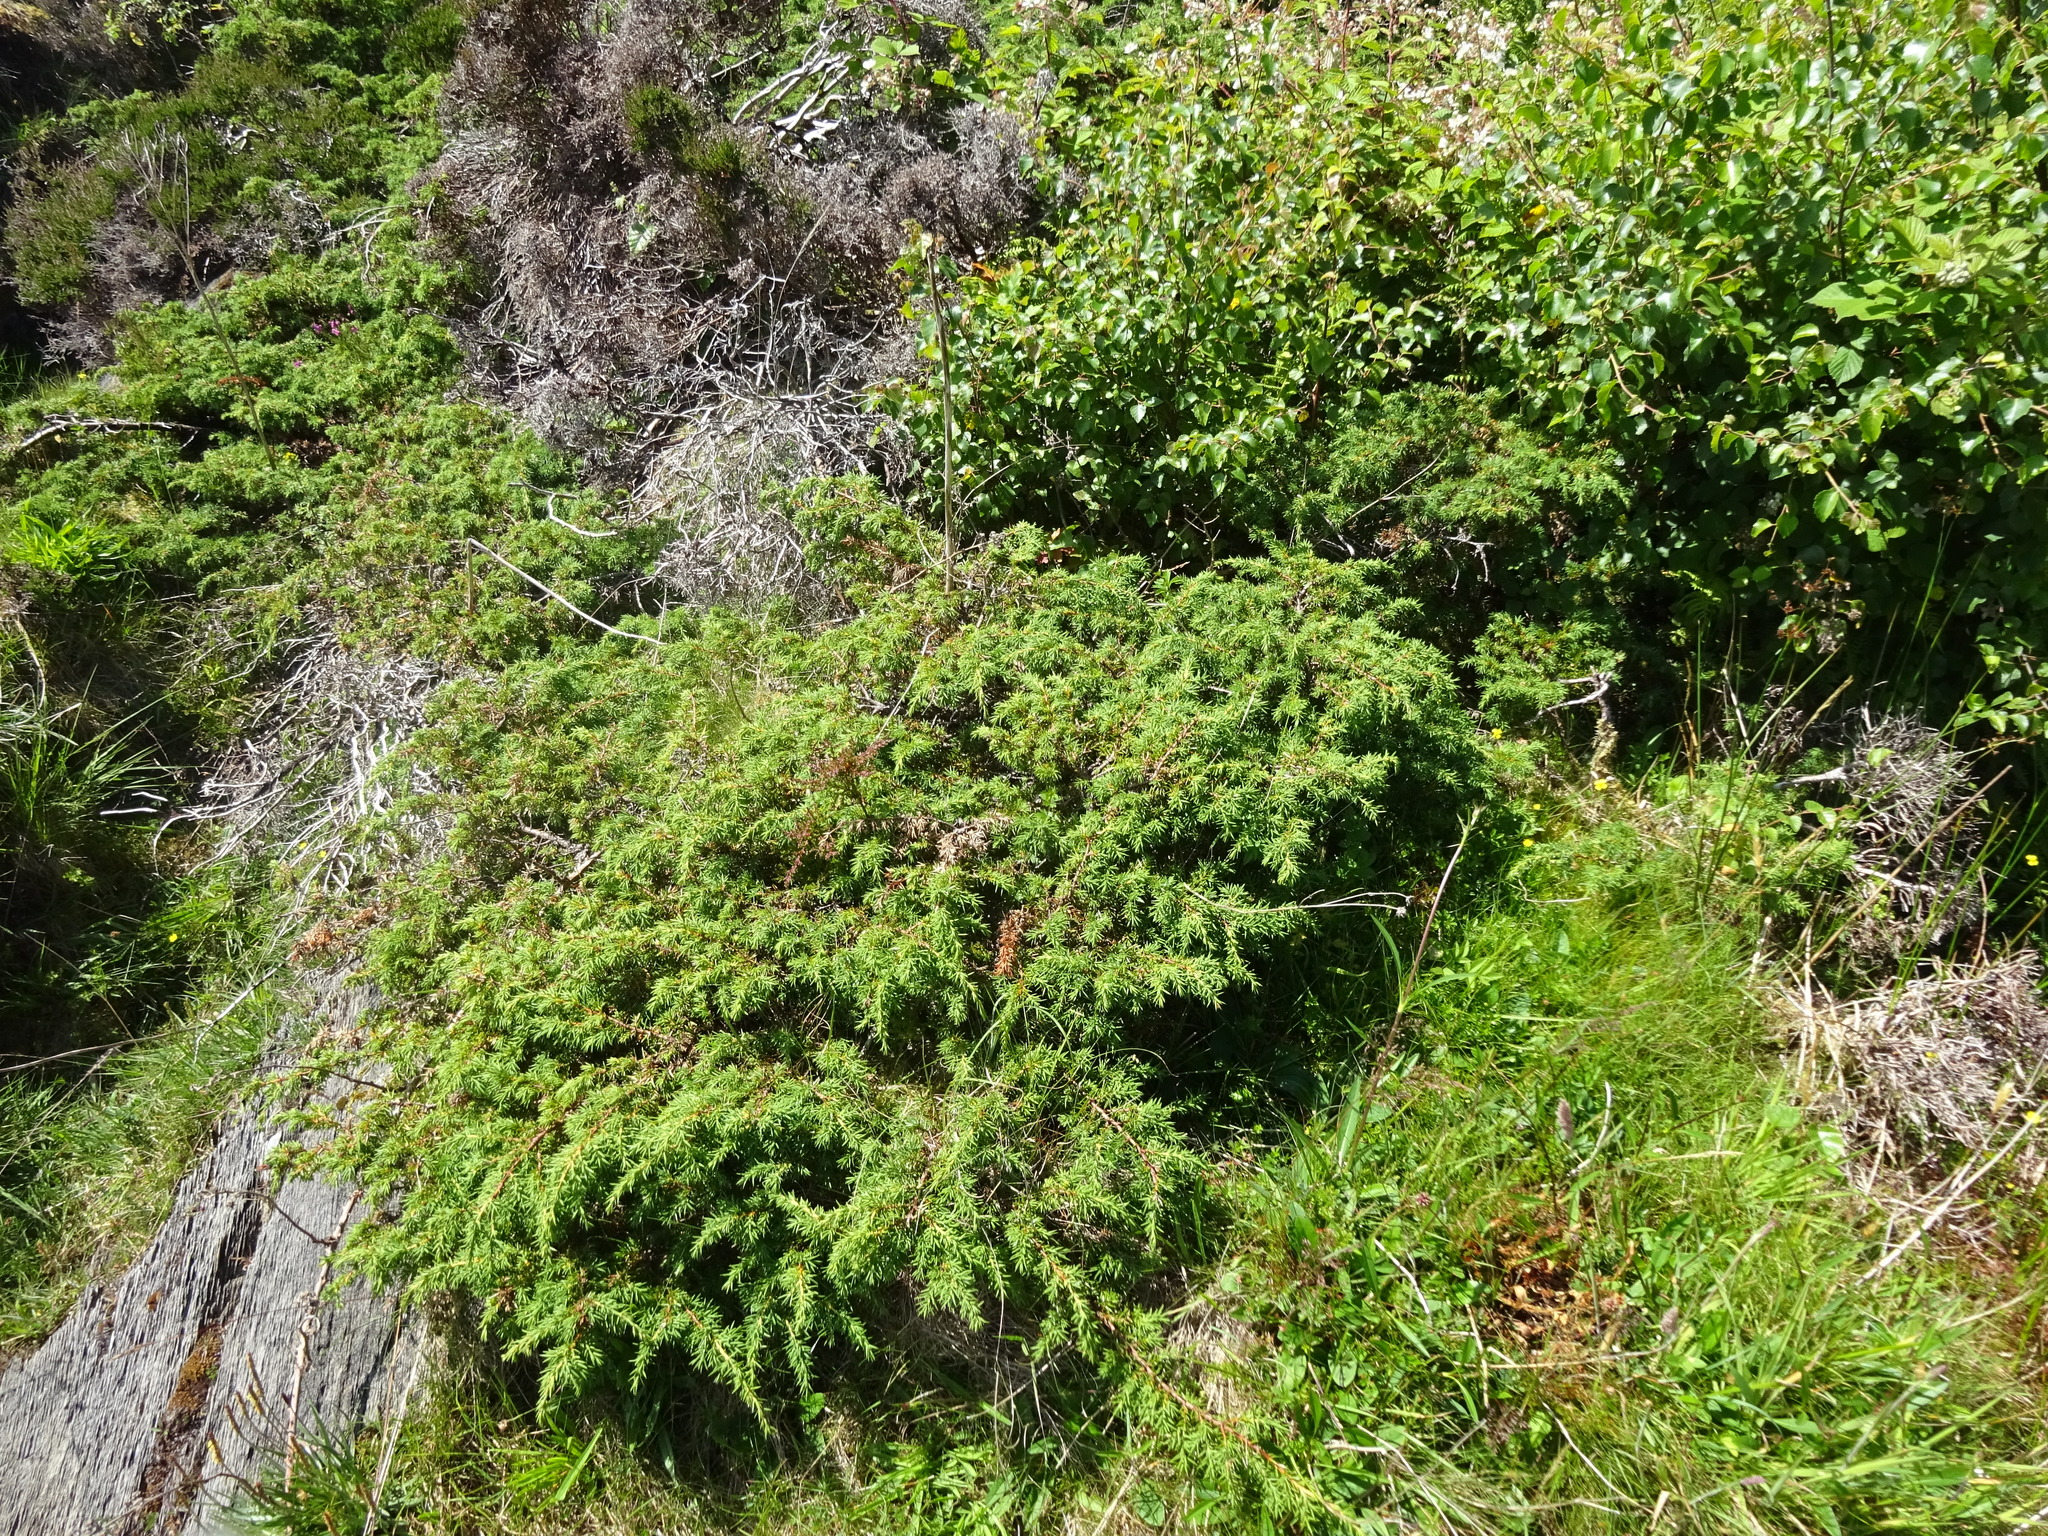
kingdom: Plantae
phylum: Tracheophyta
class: Pinopsida
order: Pinales
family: Cupressaceae
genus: Juniperus
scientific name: Juniperus communis
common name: Common juniper
